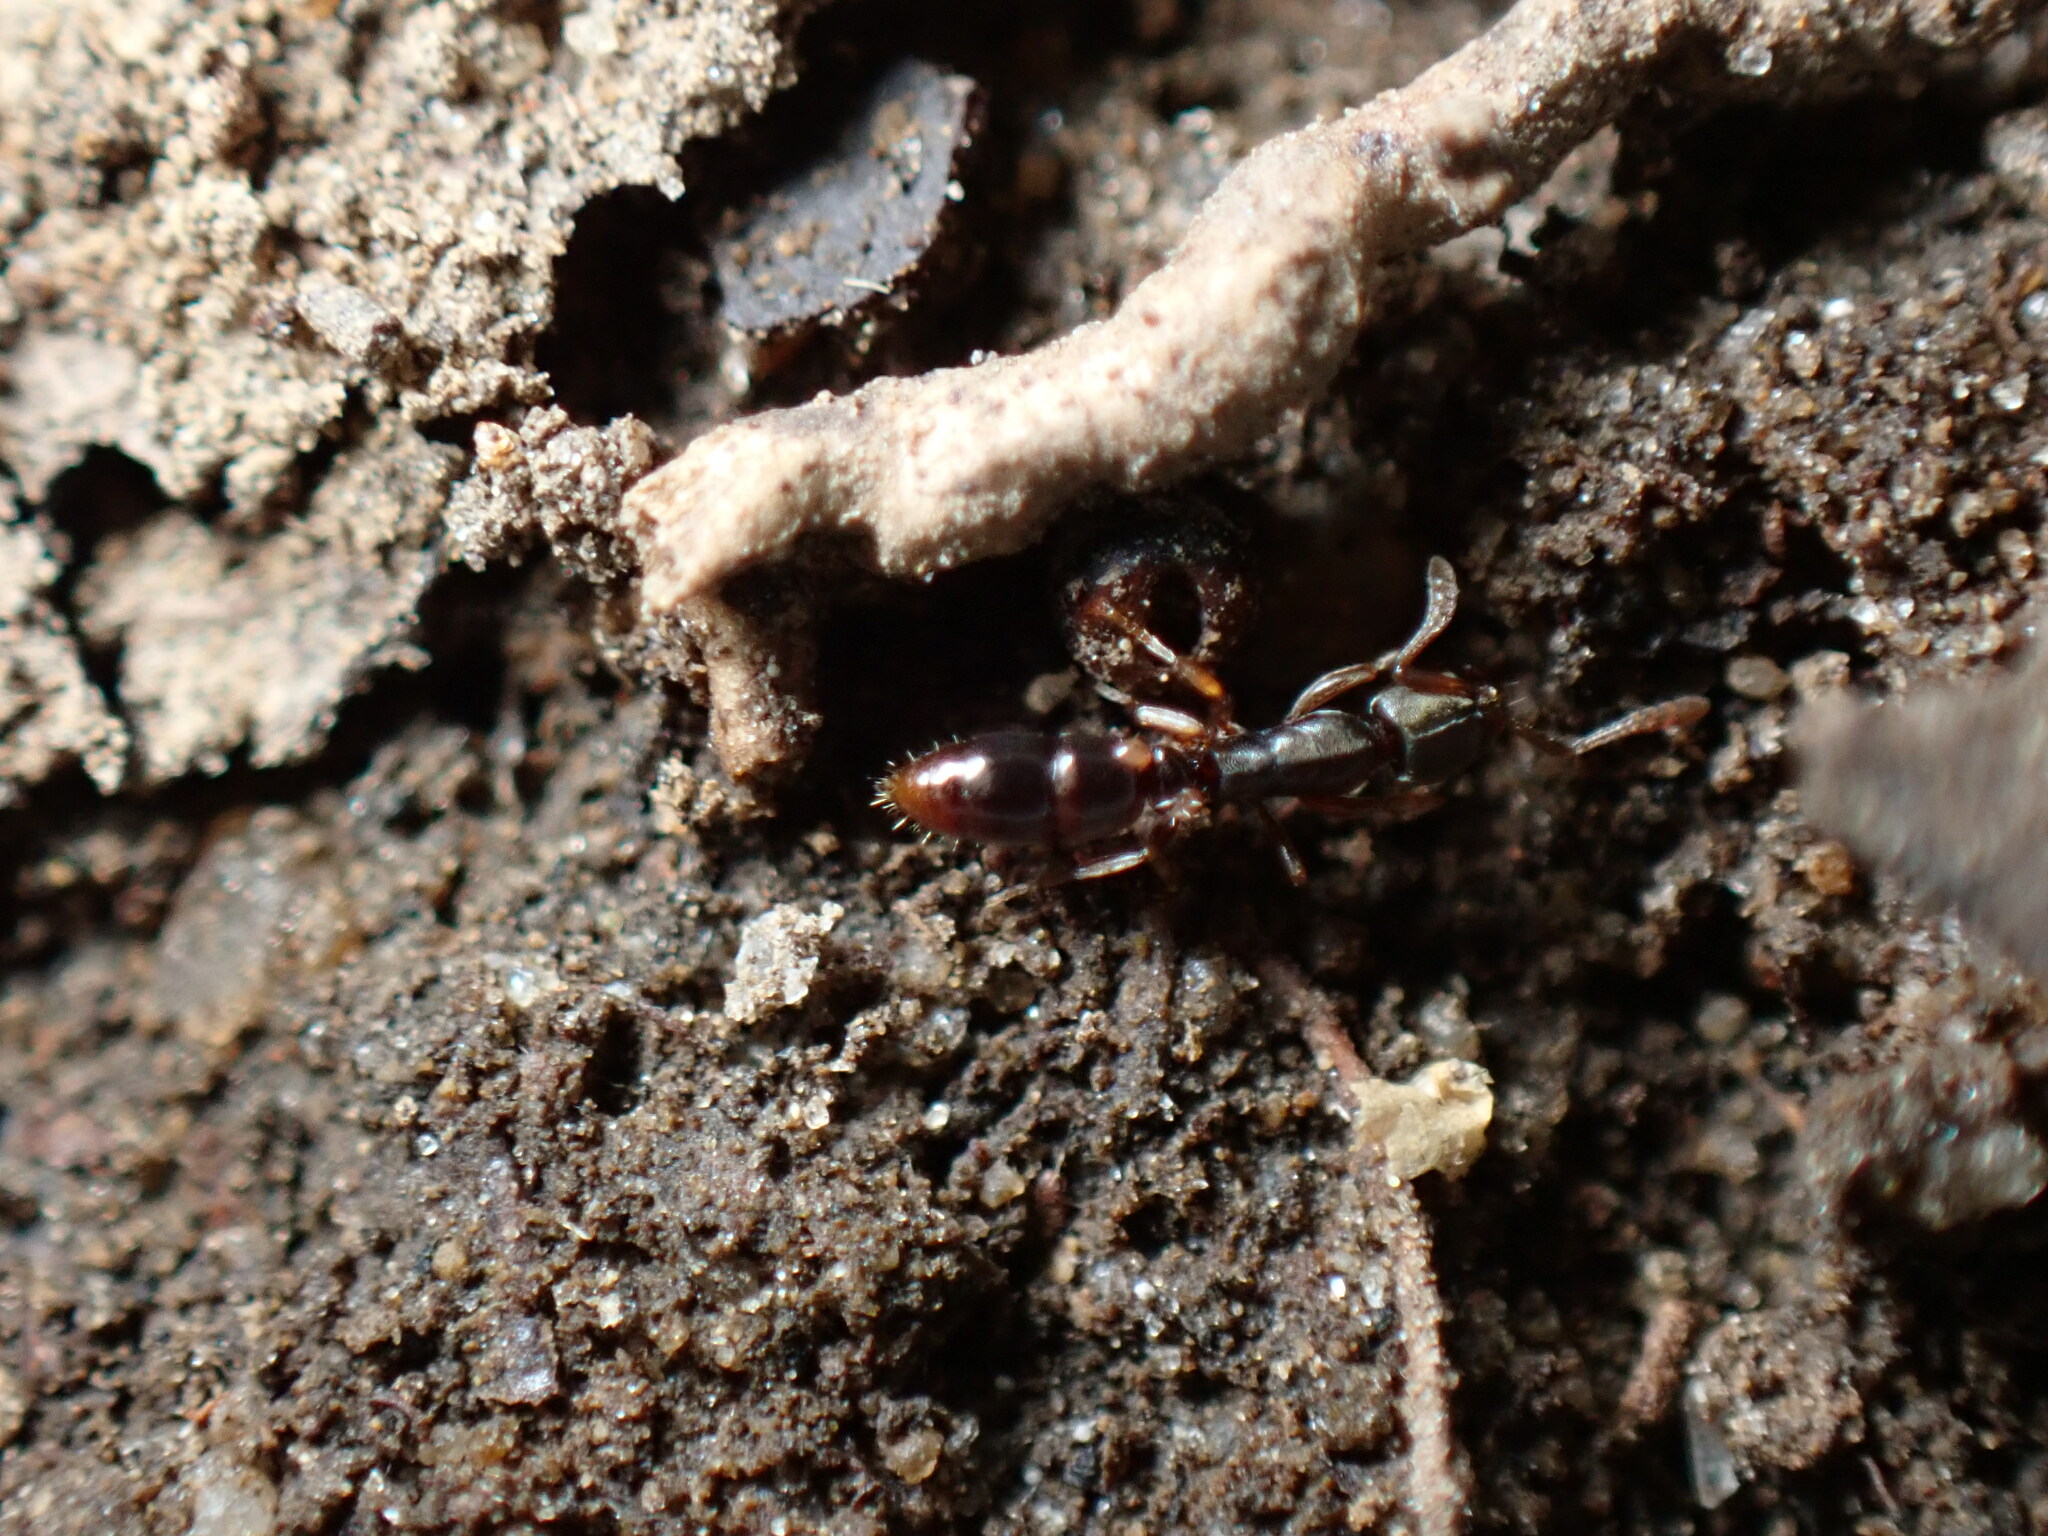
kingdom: Animalia
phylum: Arthropoda
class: Insecta
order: Hymenoptera
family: Formicidae
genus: Ponera
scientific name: Ponera pennsylvanica
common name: Pennsylvania ponera
